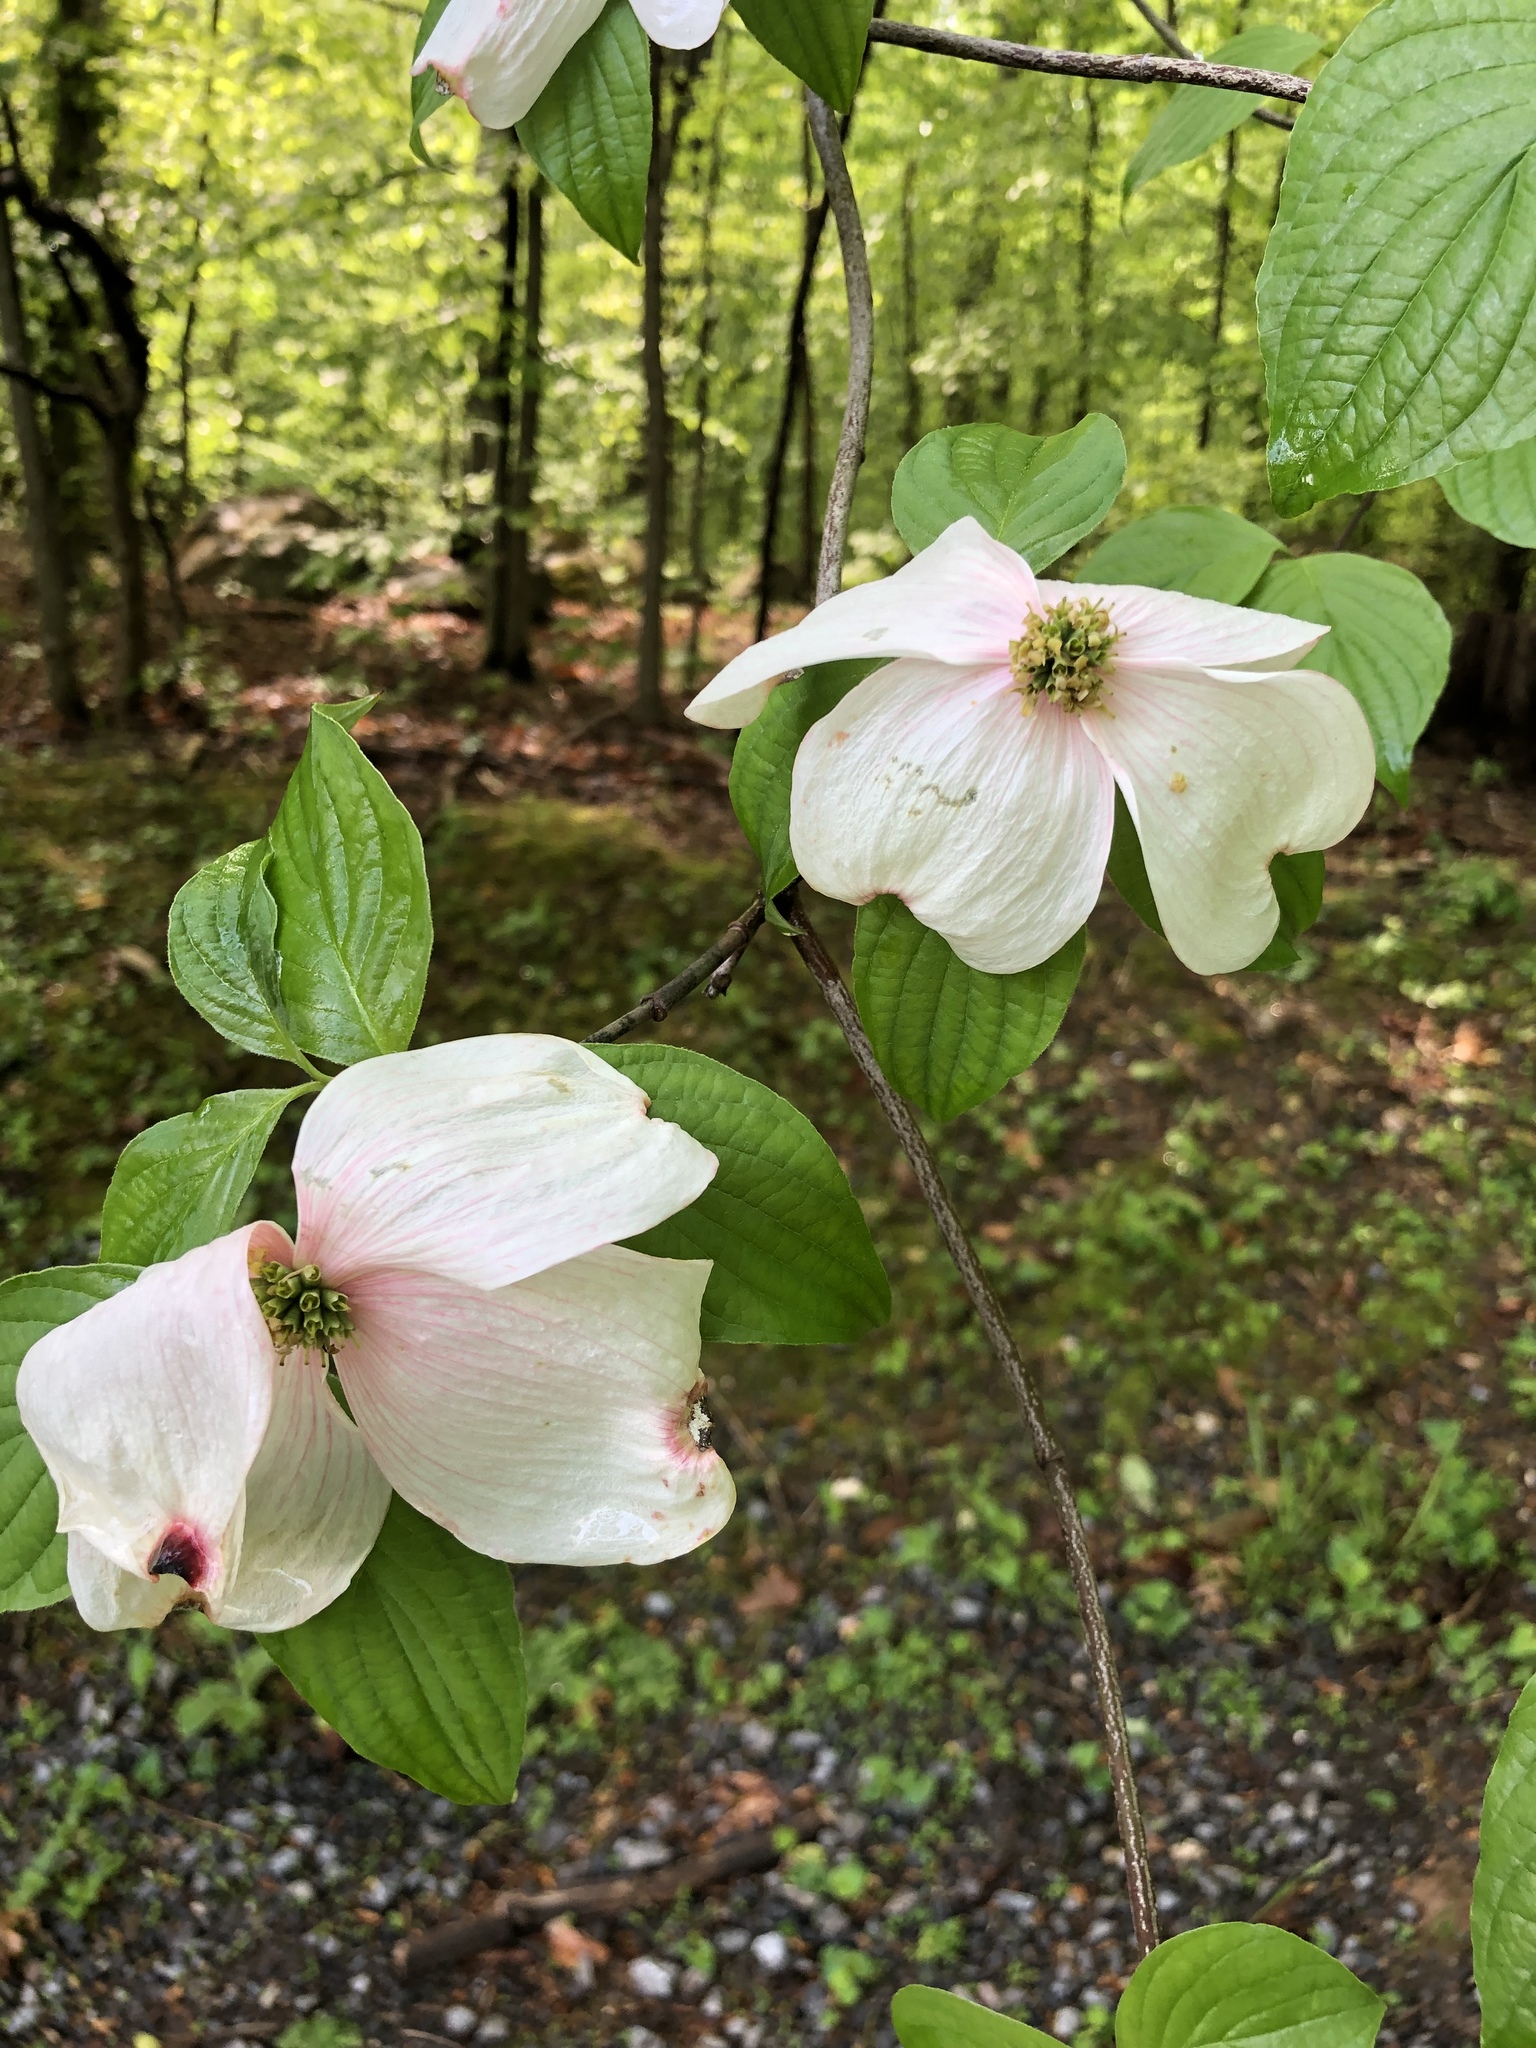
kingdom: Plantae
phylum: Tracheophyta
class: Magnoliopsida
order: Cornales
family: Cornaceae
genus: Cornus
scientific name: Cornus florida
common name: Flowering dogwood
